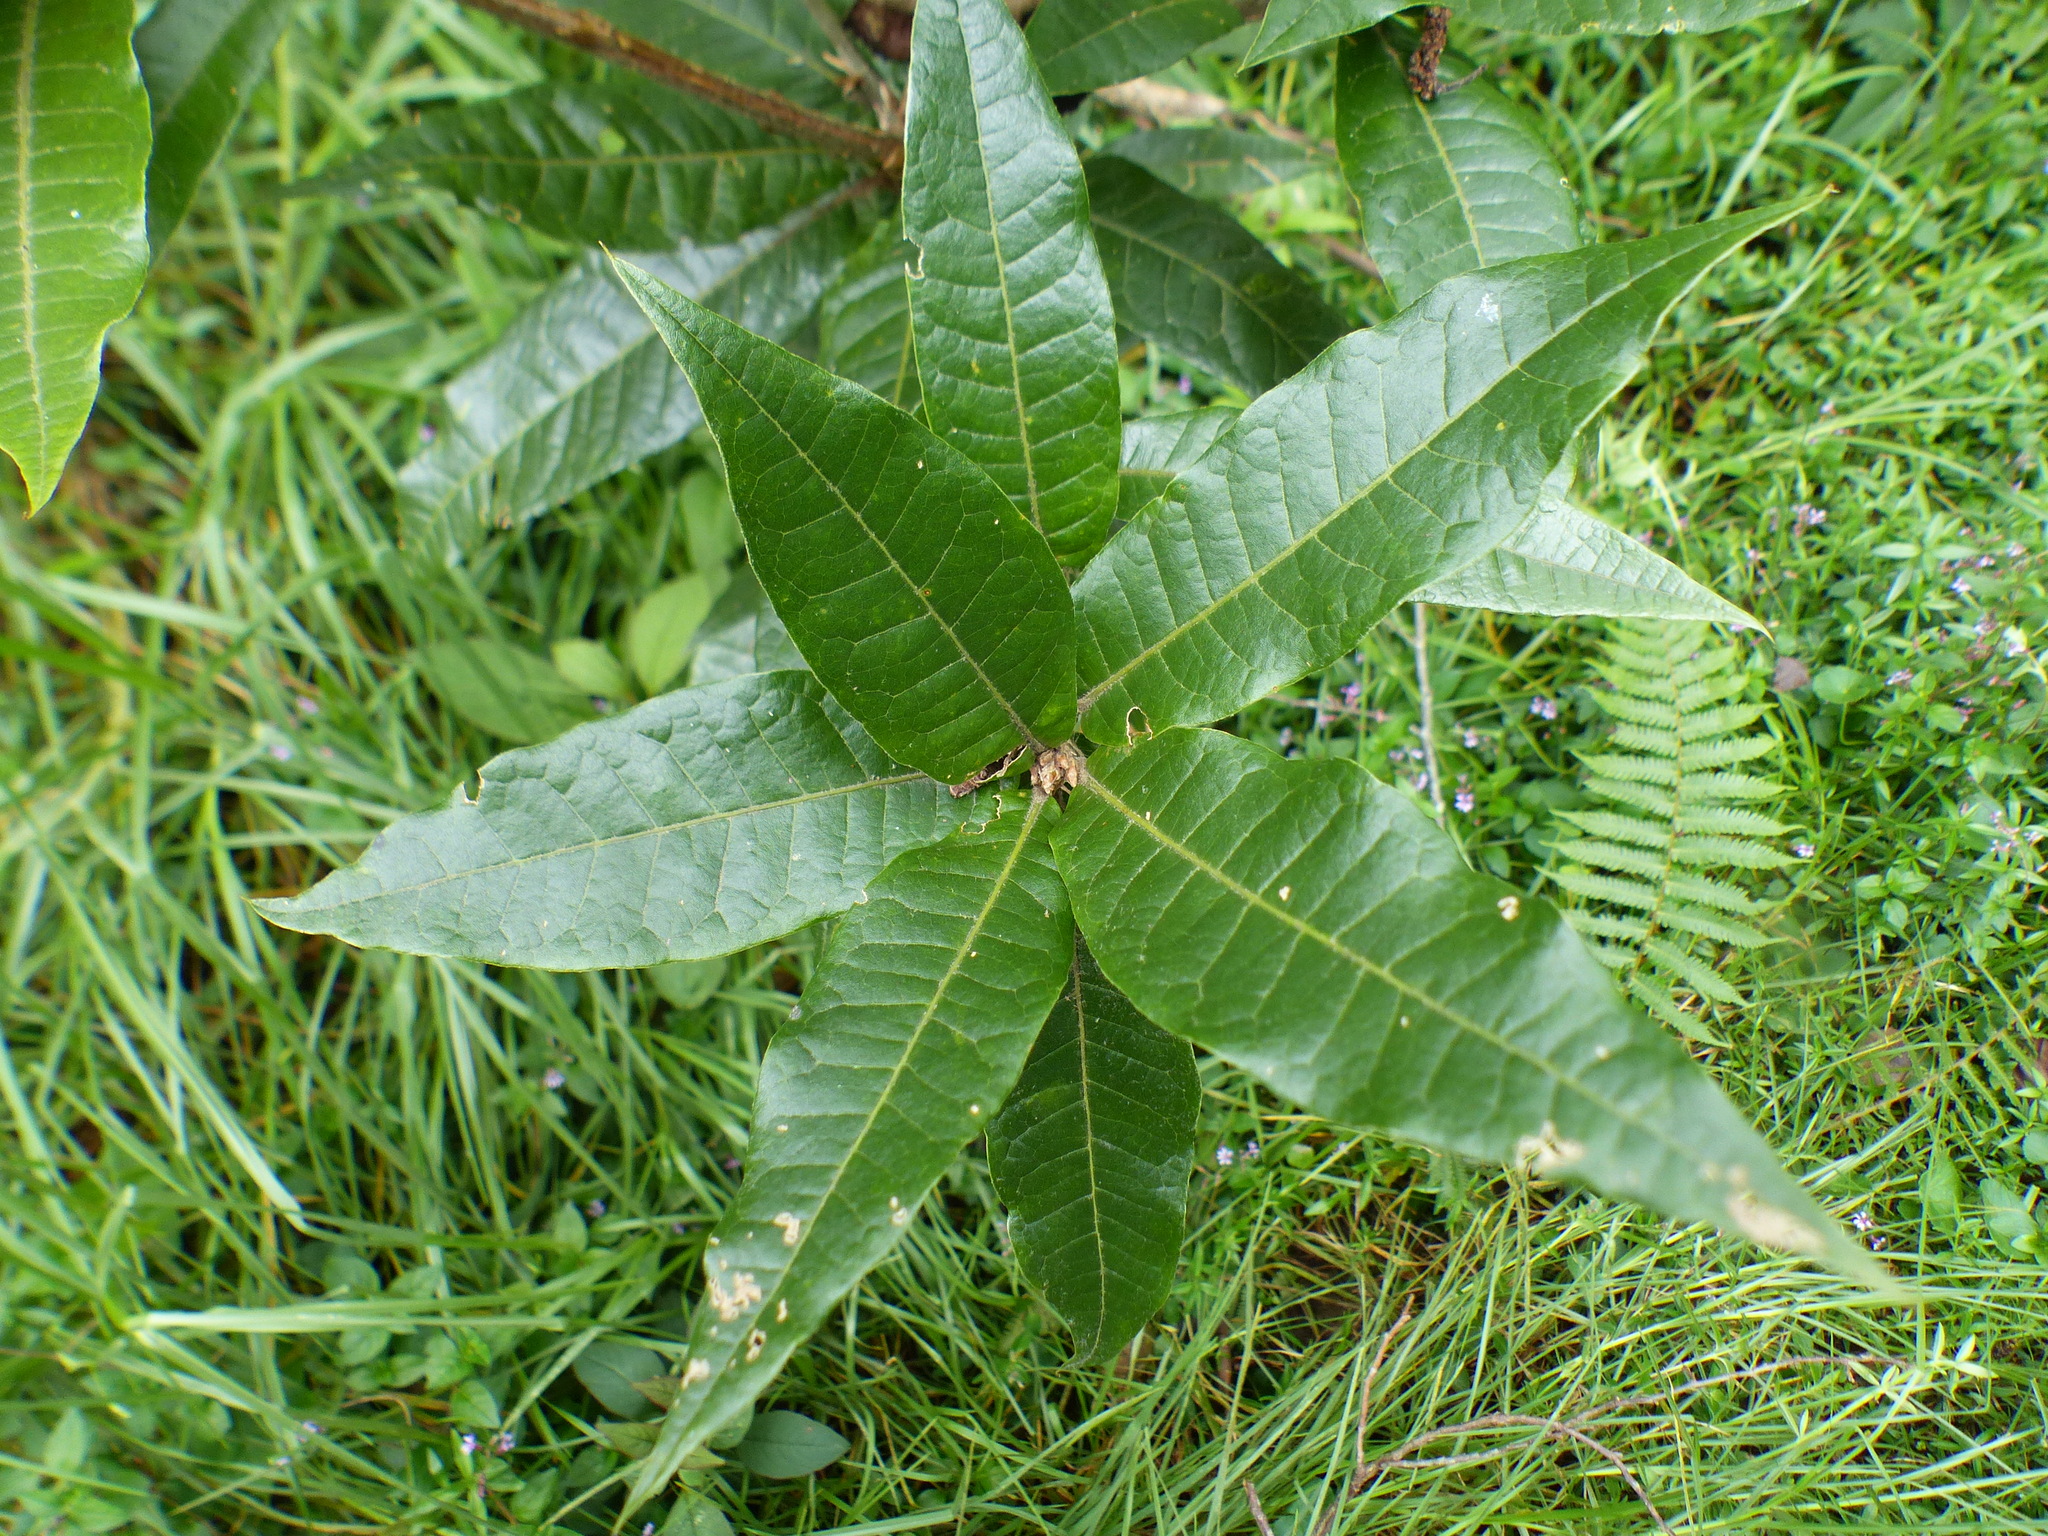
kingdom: Plantae
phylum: Tracheophyta
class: Magnoliopsida
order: Fagales
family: Fagaceae
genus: Quercus
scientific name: Quercus humboldtii
